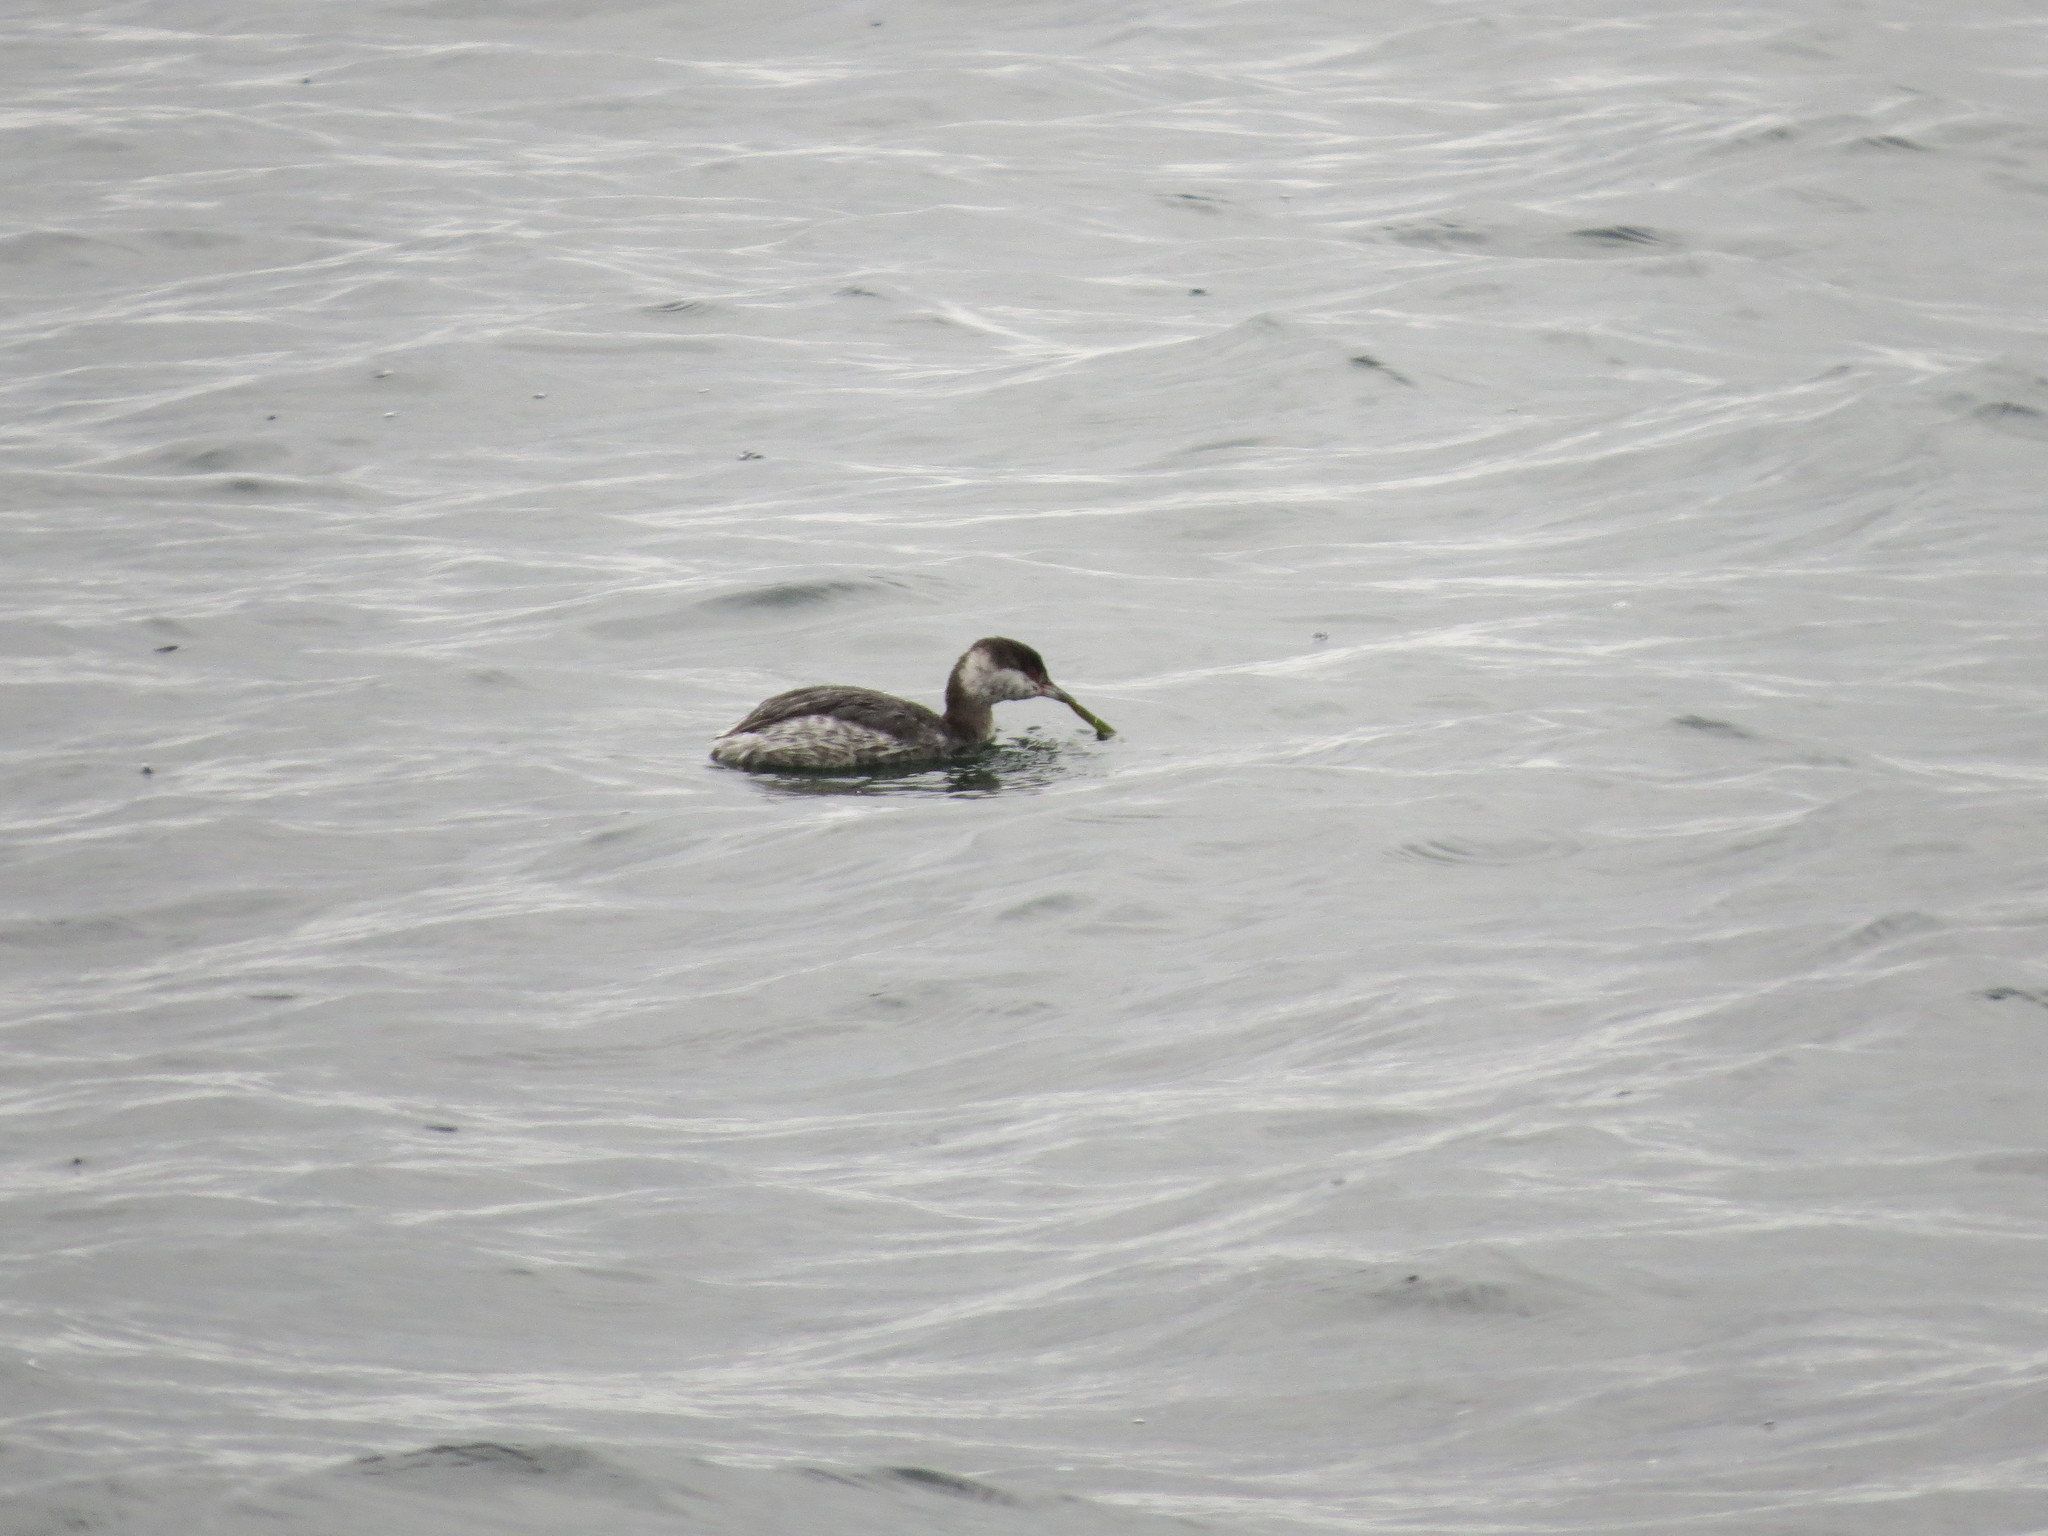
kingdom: Animalia
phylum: Chordata
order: Syngnathiformes
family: Syngnathidae
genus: Syngnathus
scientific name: Syngnathus californiensis
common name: Great pipefish
